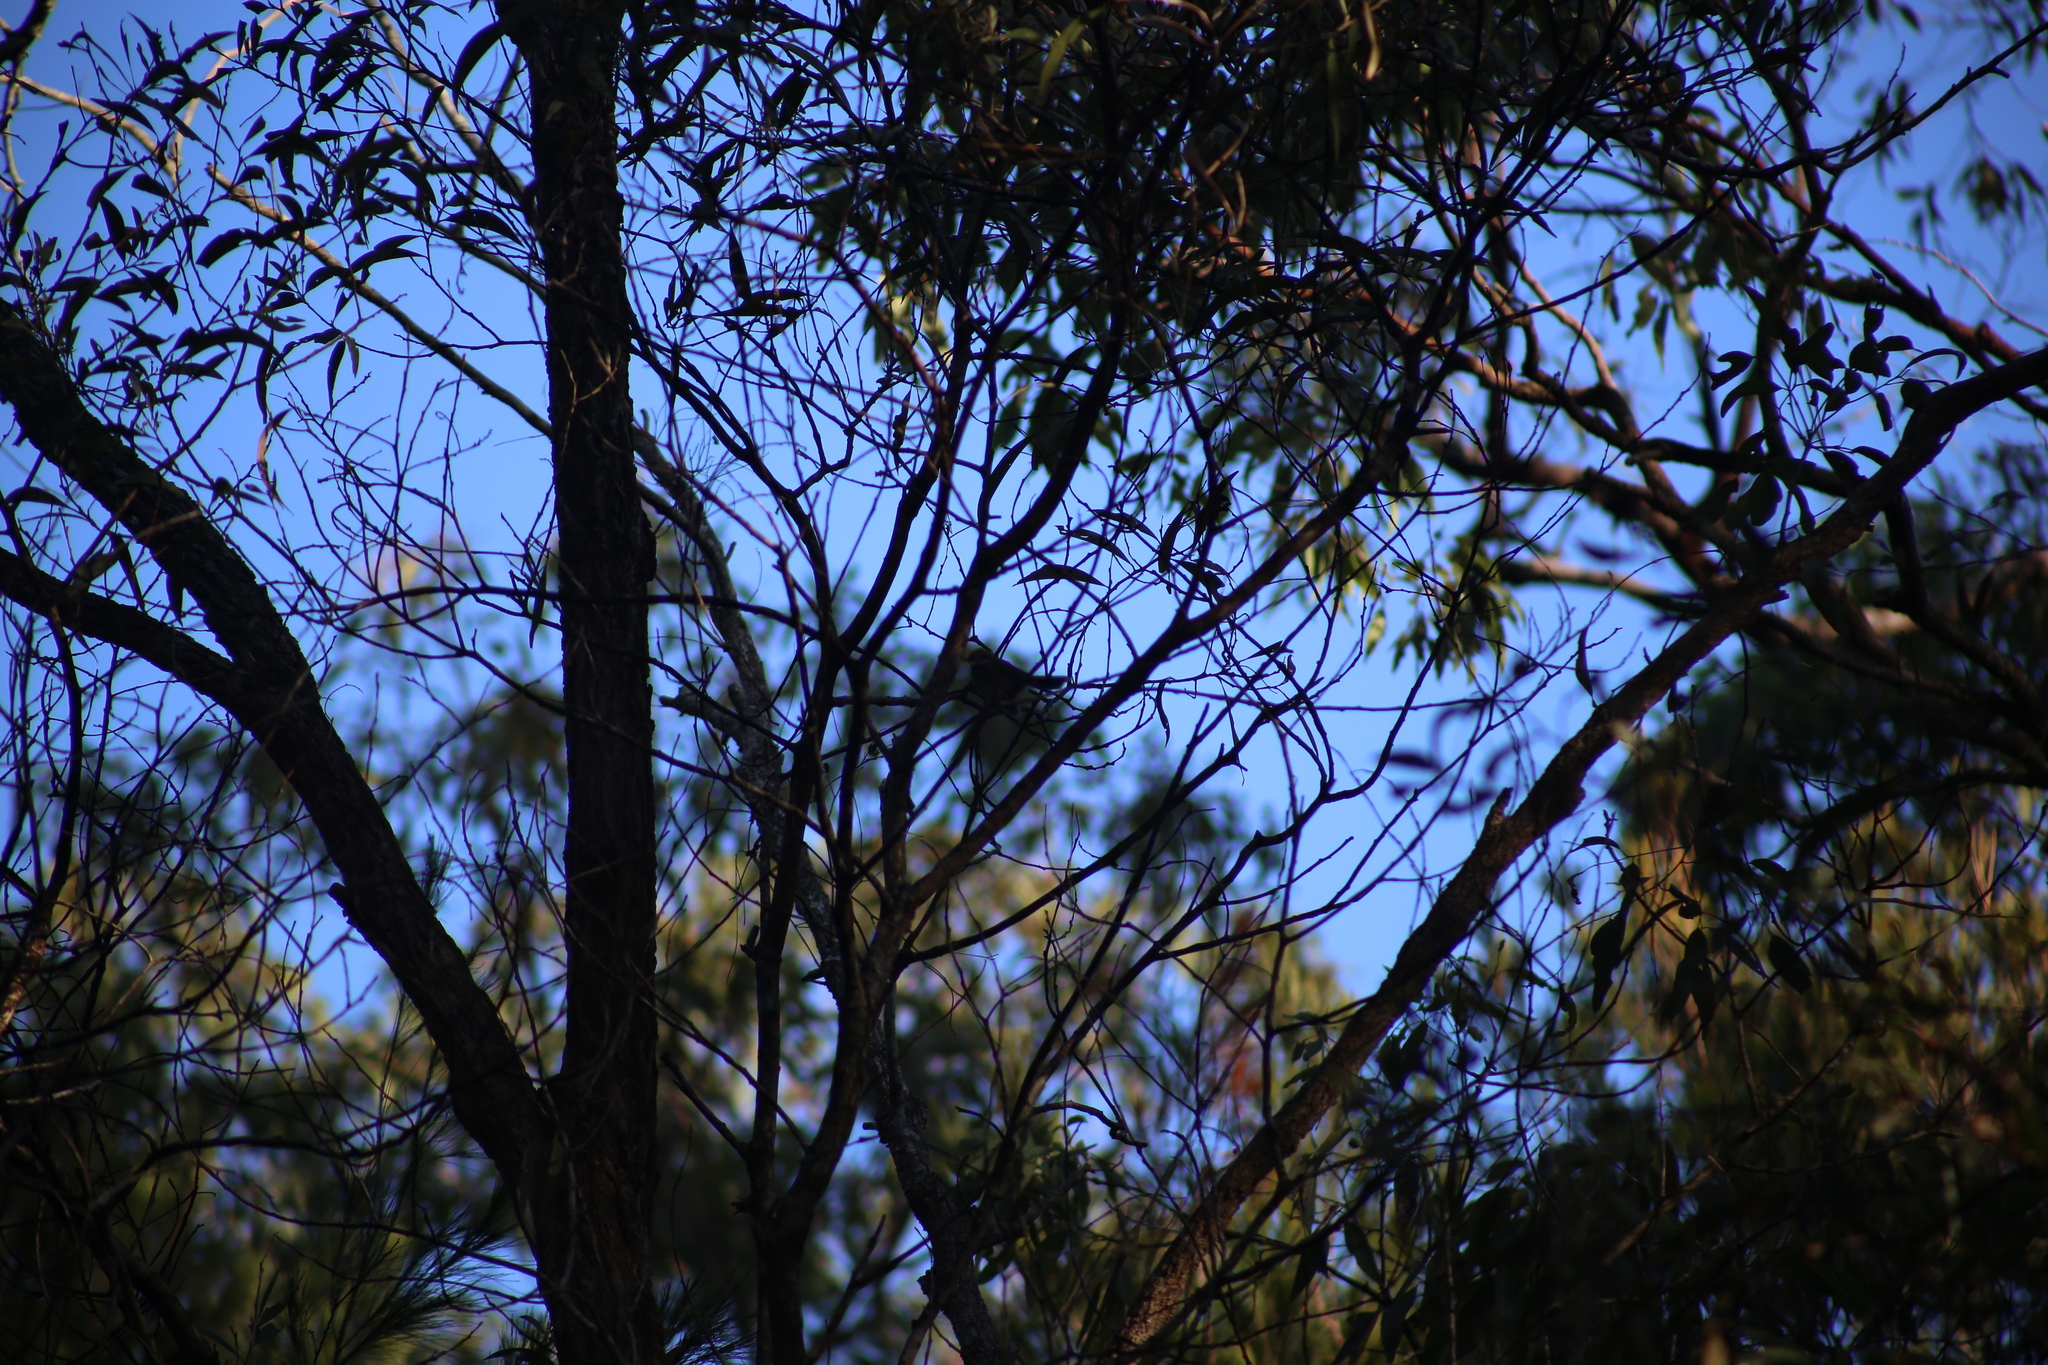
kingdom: Animalia
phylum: Chordata
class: Aves
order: Passeriformes
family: Rhipiduridae
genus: Rhipidura
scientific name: Rhipidura rufifrons
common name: Rufous fantail
